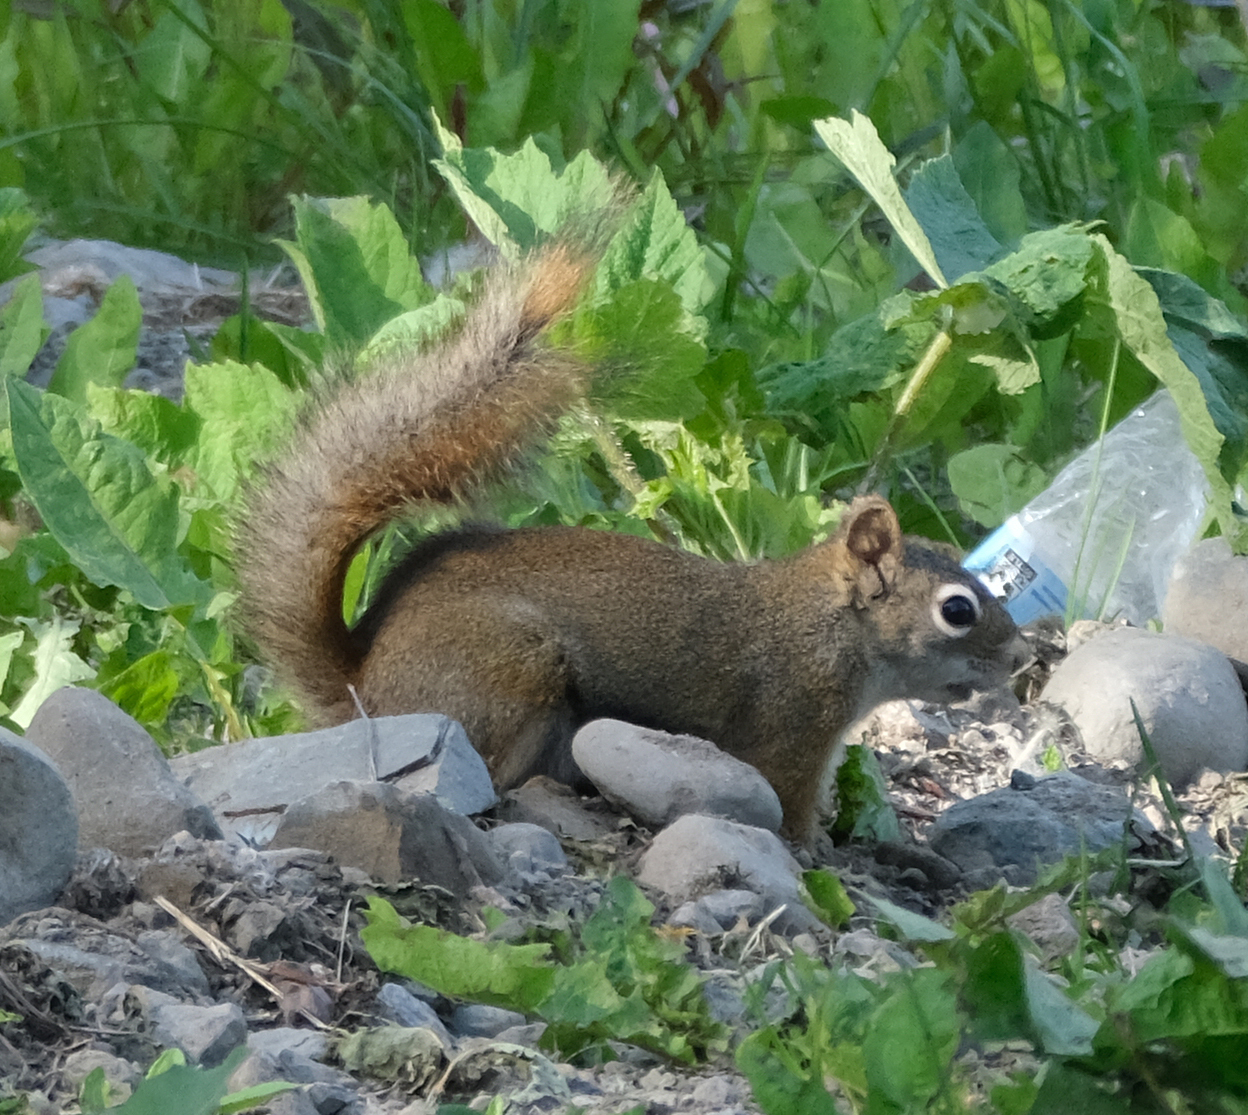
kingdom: Animalia
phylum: Chordata
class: Mammalia
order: Rodentia
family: Sciuridae
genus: Tamiasciurus
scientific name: Tamiasciurus hudsonicus
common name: Red squirrel
